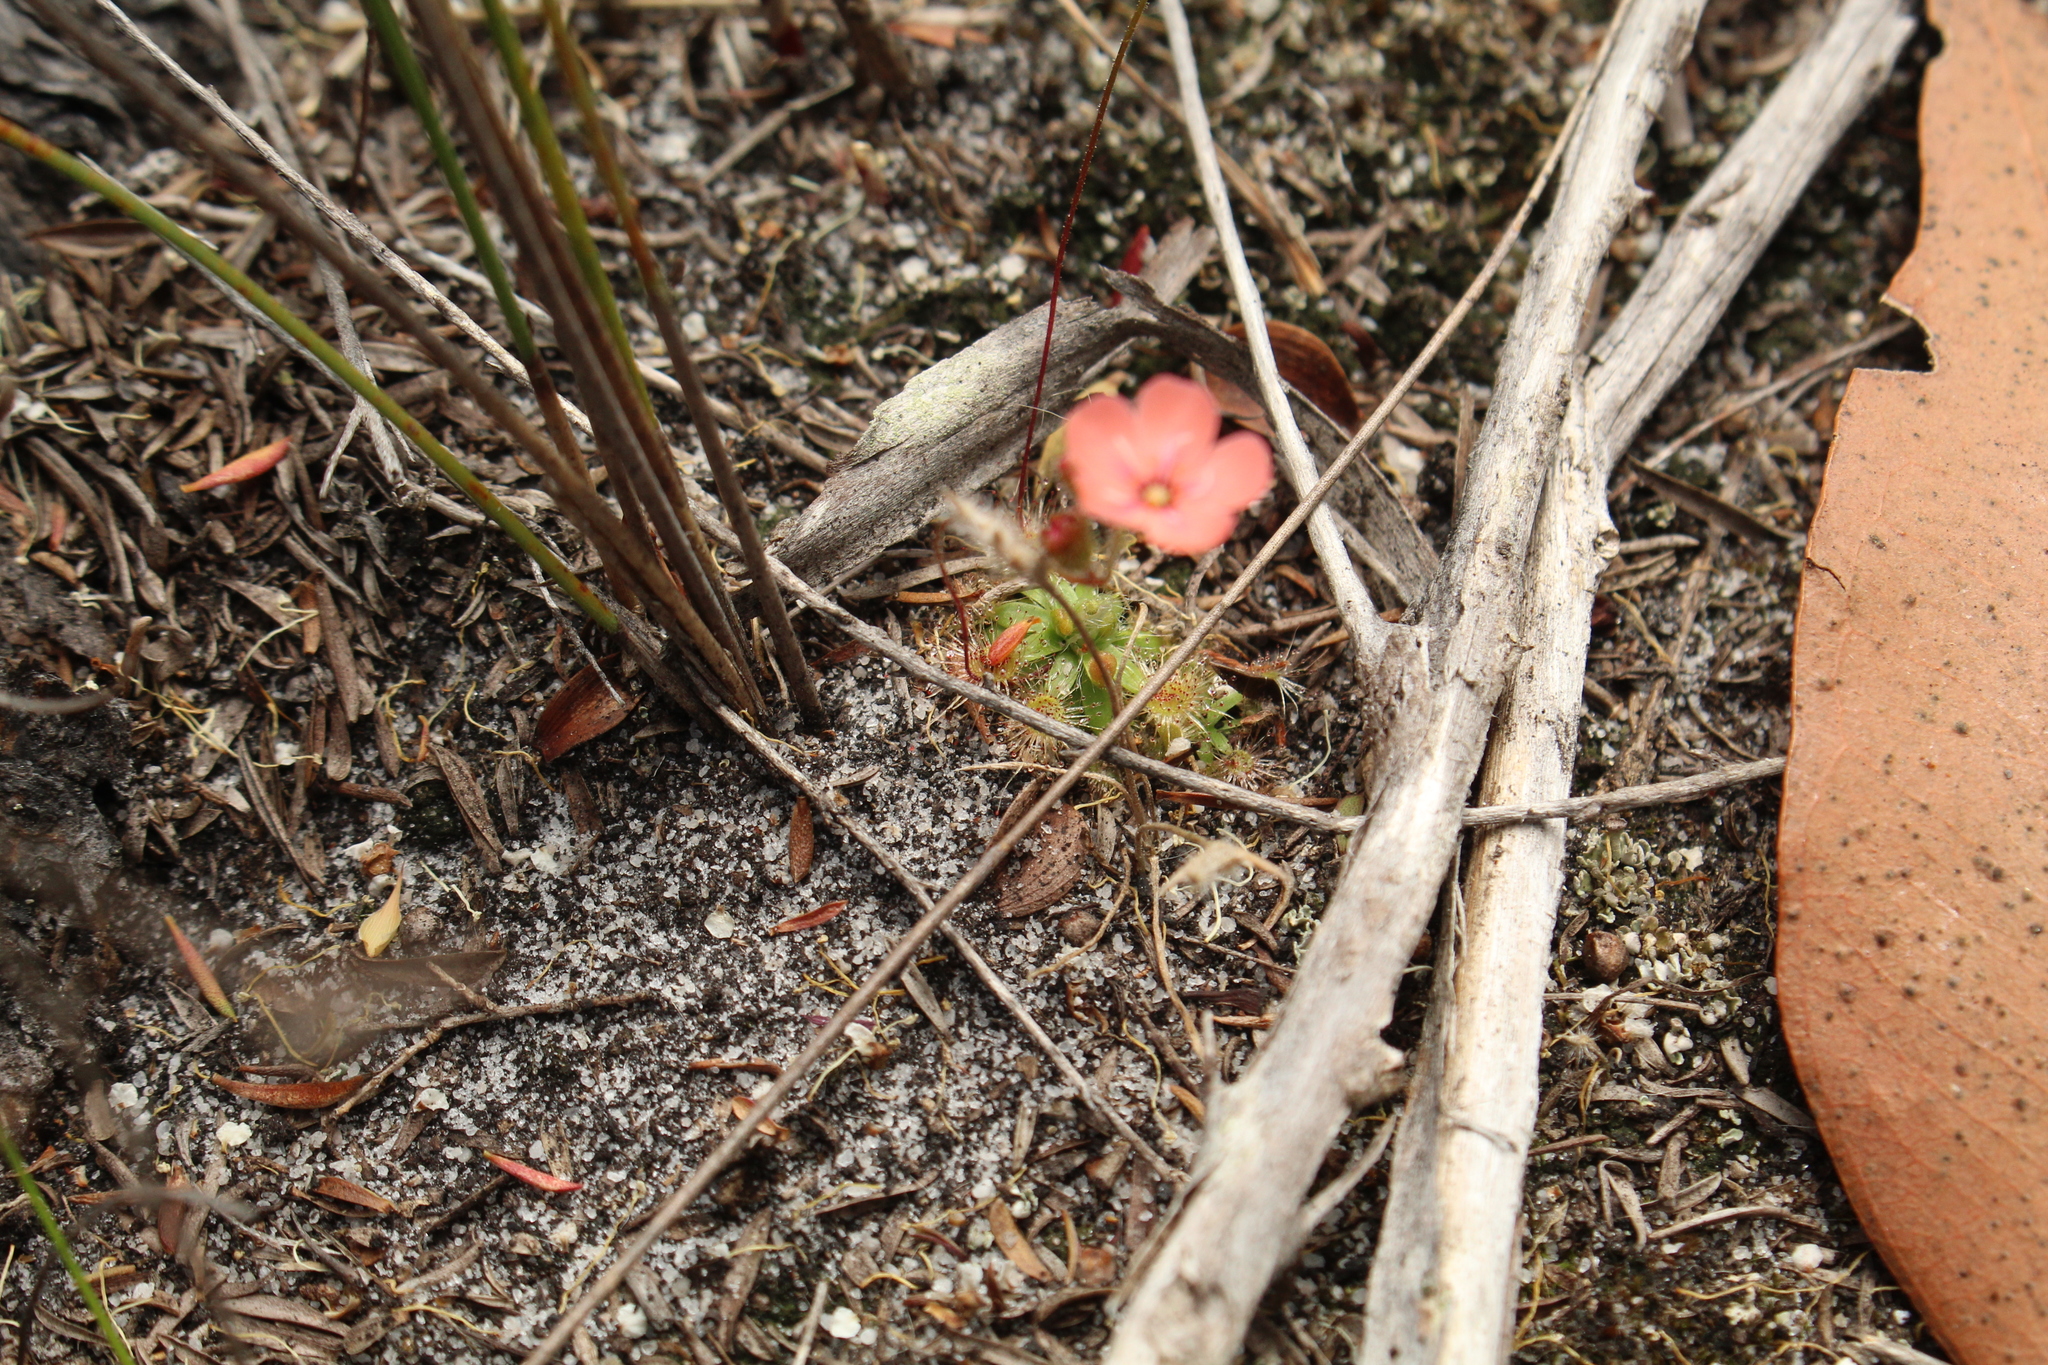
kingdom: Plantae
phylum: Tracheophyta
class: Magnoliopsida
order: Caryophyllales
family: Droseraceae
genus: Drosera
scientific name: Drosera pulchella
